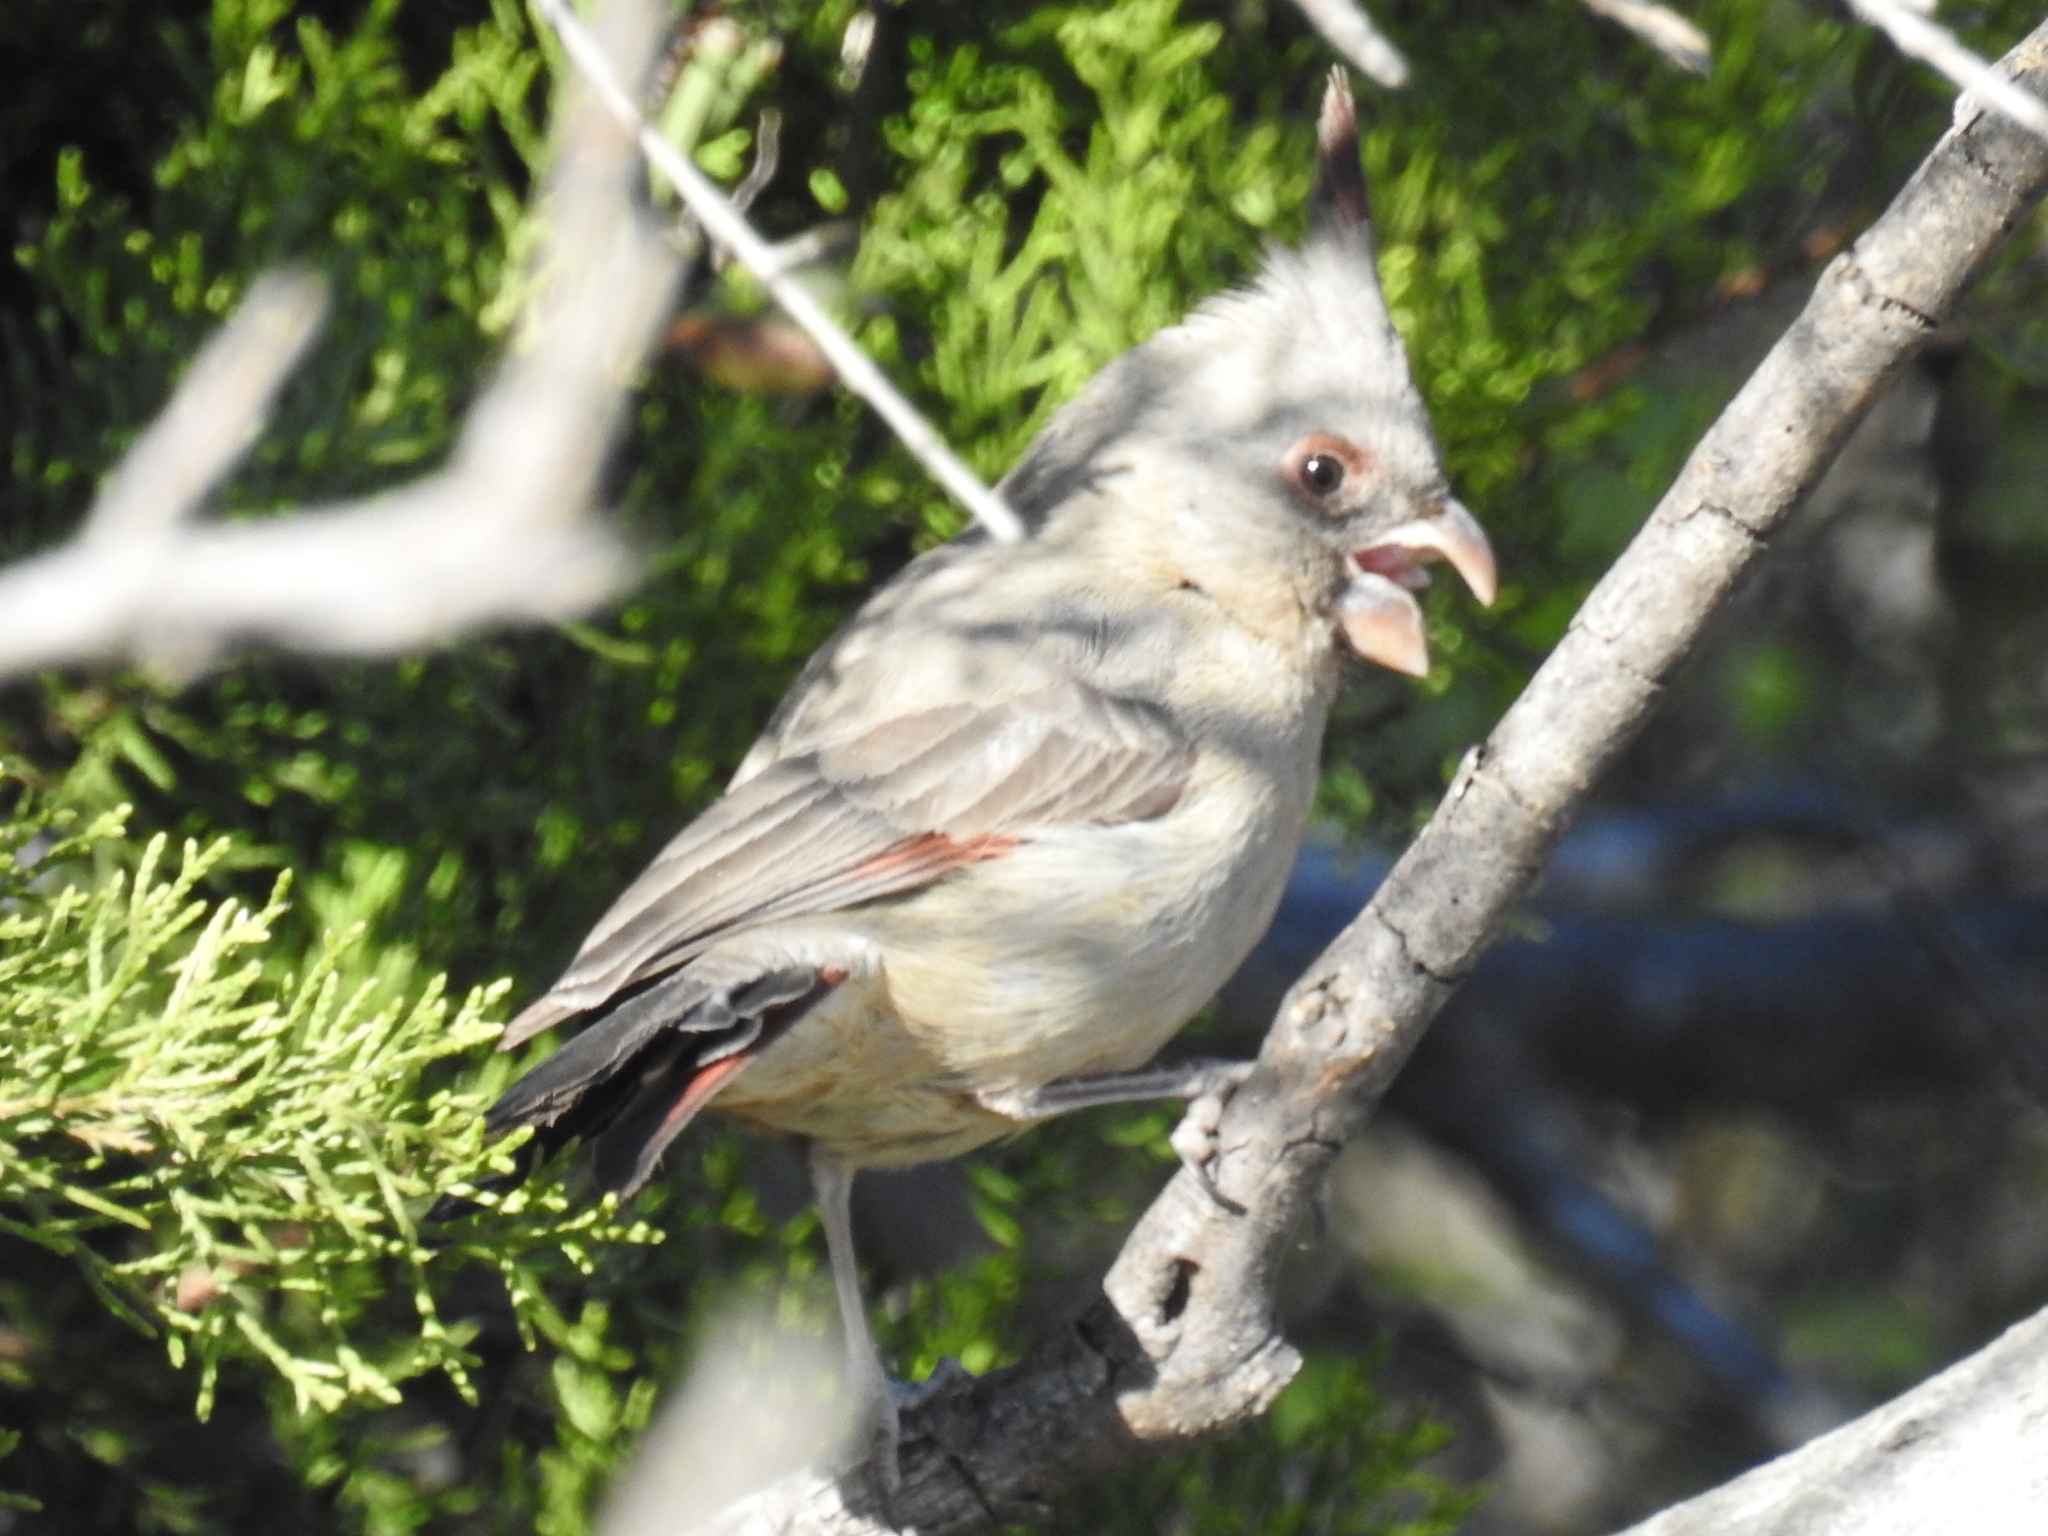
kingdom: Animalia
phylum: Chordata
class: Aves
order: Passeriformes
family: Cardinalidae
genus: Cardinalis
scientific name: Cardinalis sinuatus
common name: Pyrrhuloxia
